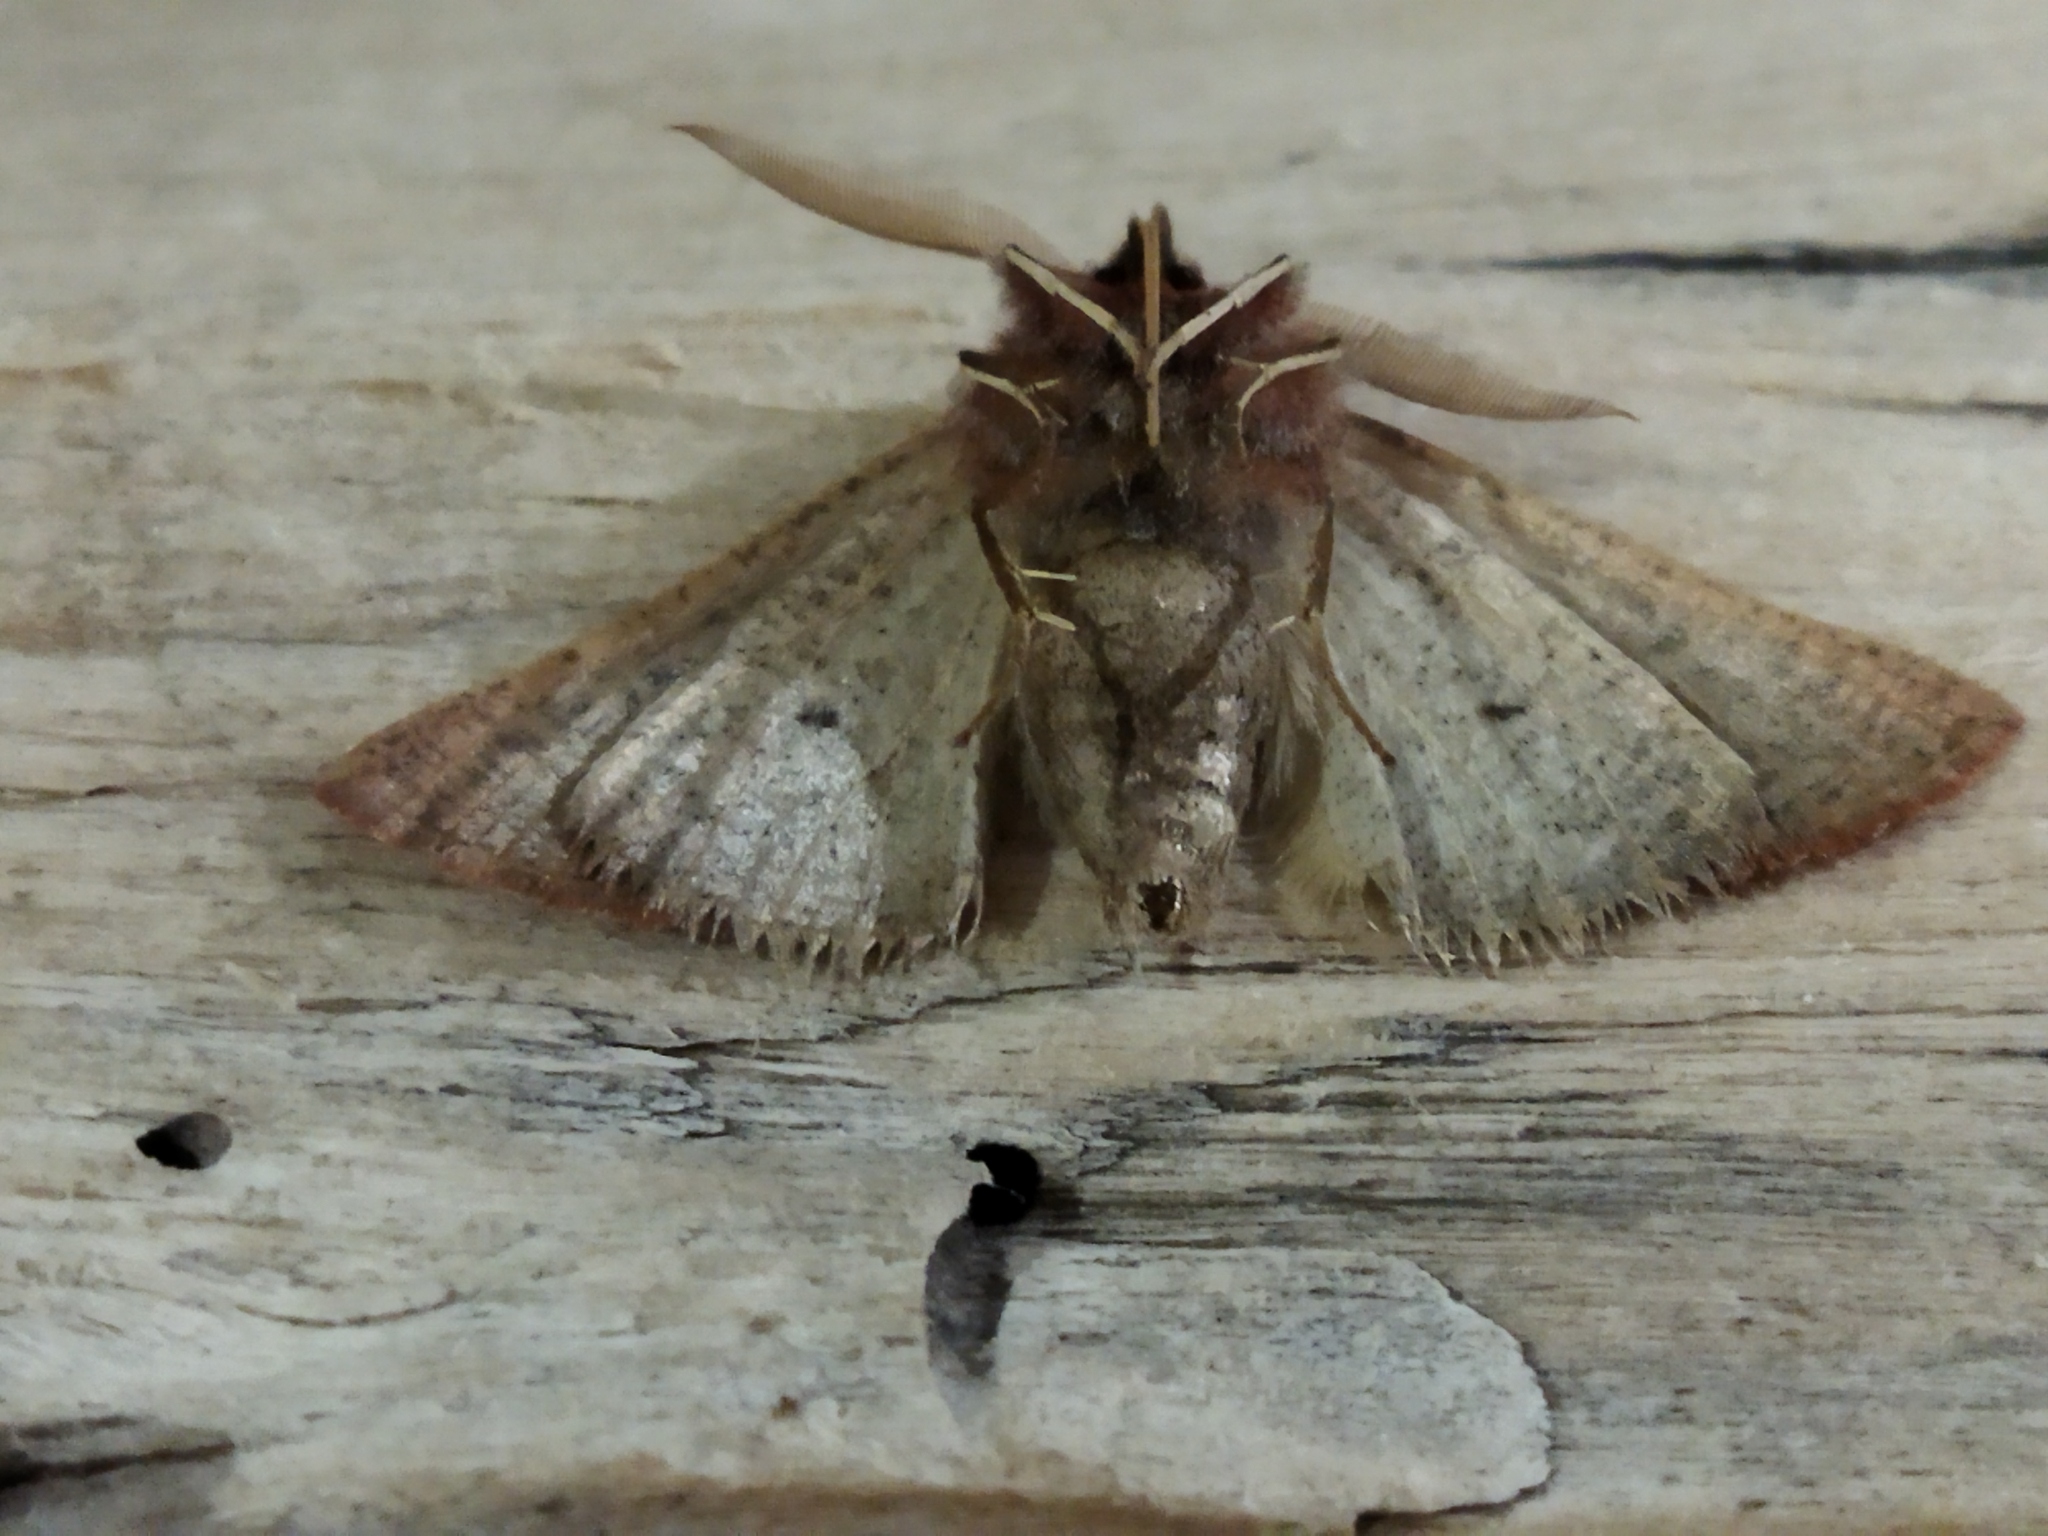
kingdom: Animalia
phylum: Arthropoda
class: Insecta
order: Lepidoptera
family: Geometridae
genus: Dasycorsa
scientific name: Dasycorsa modesta
